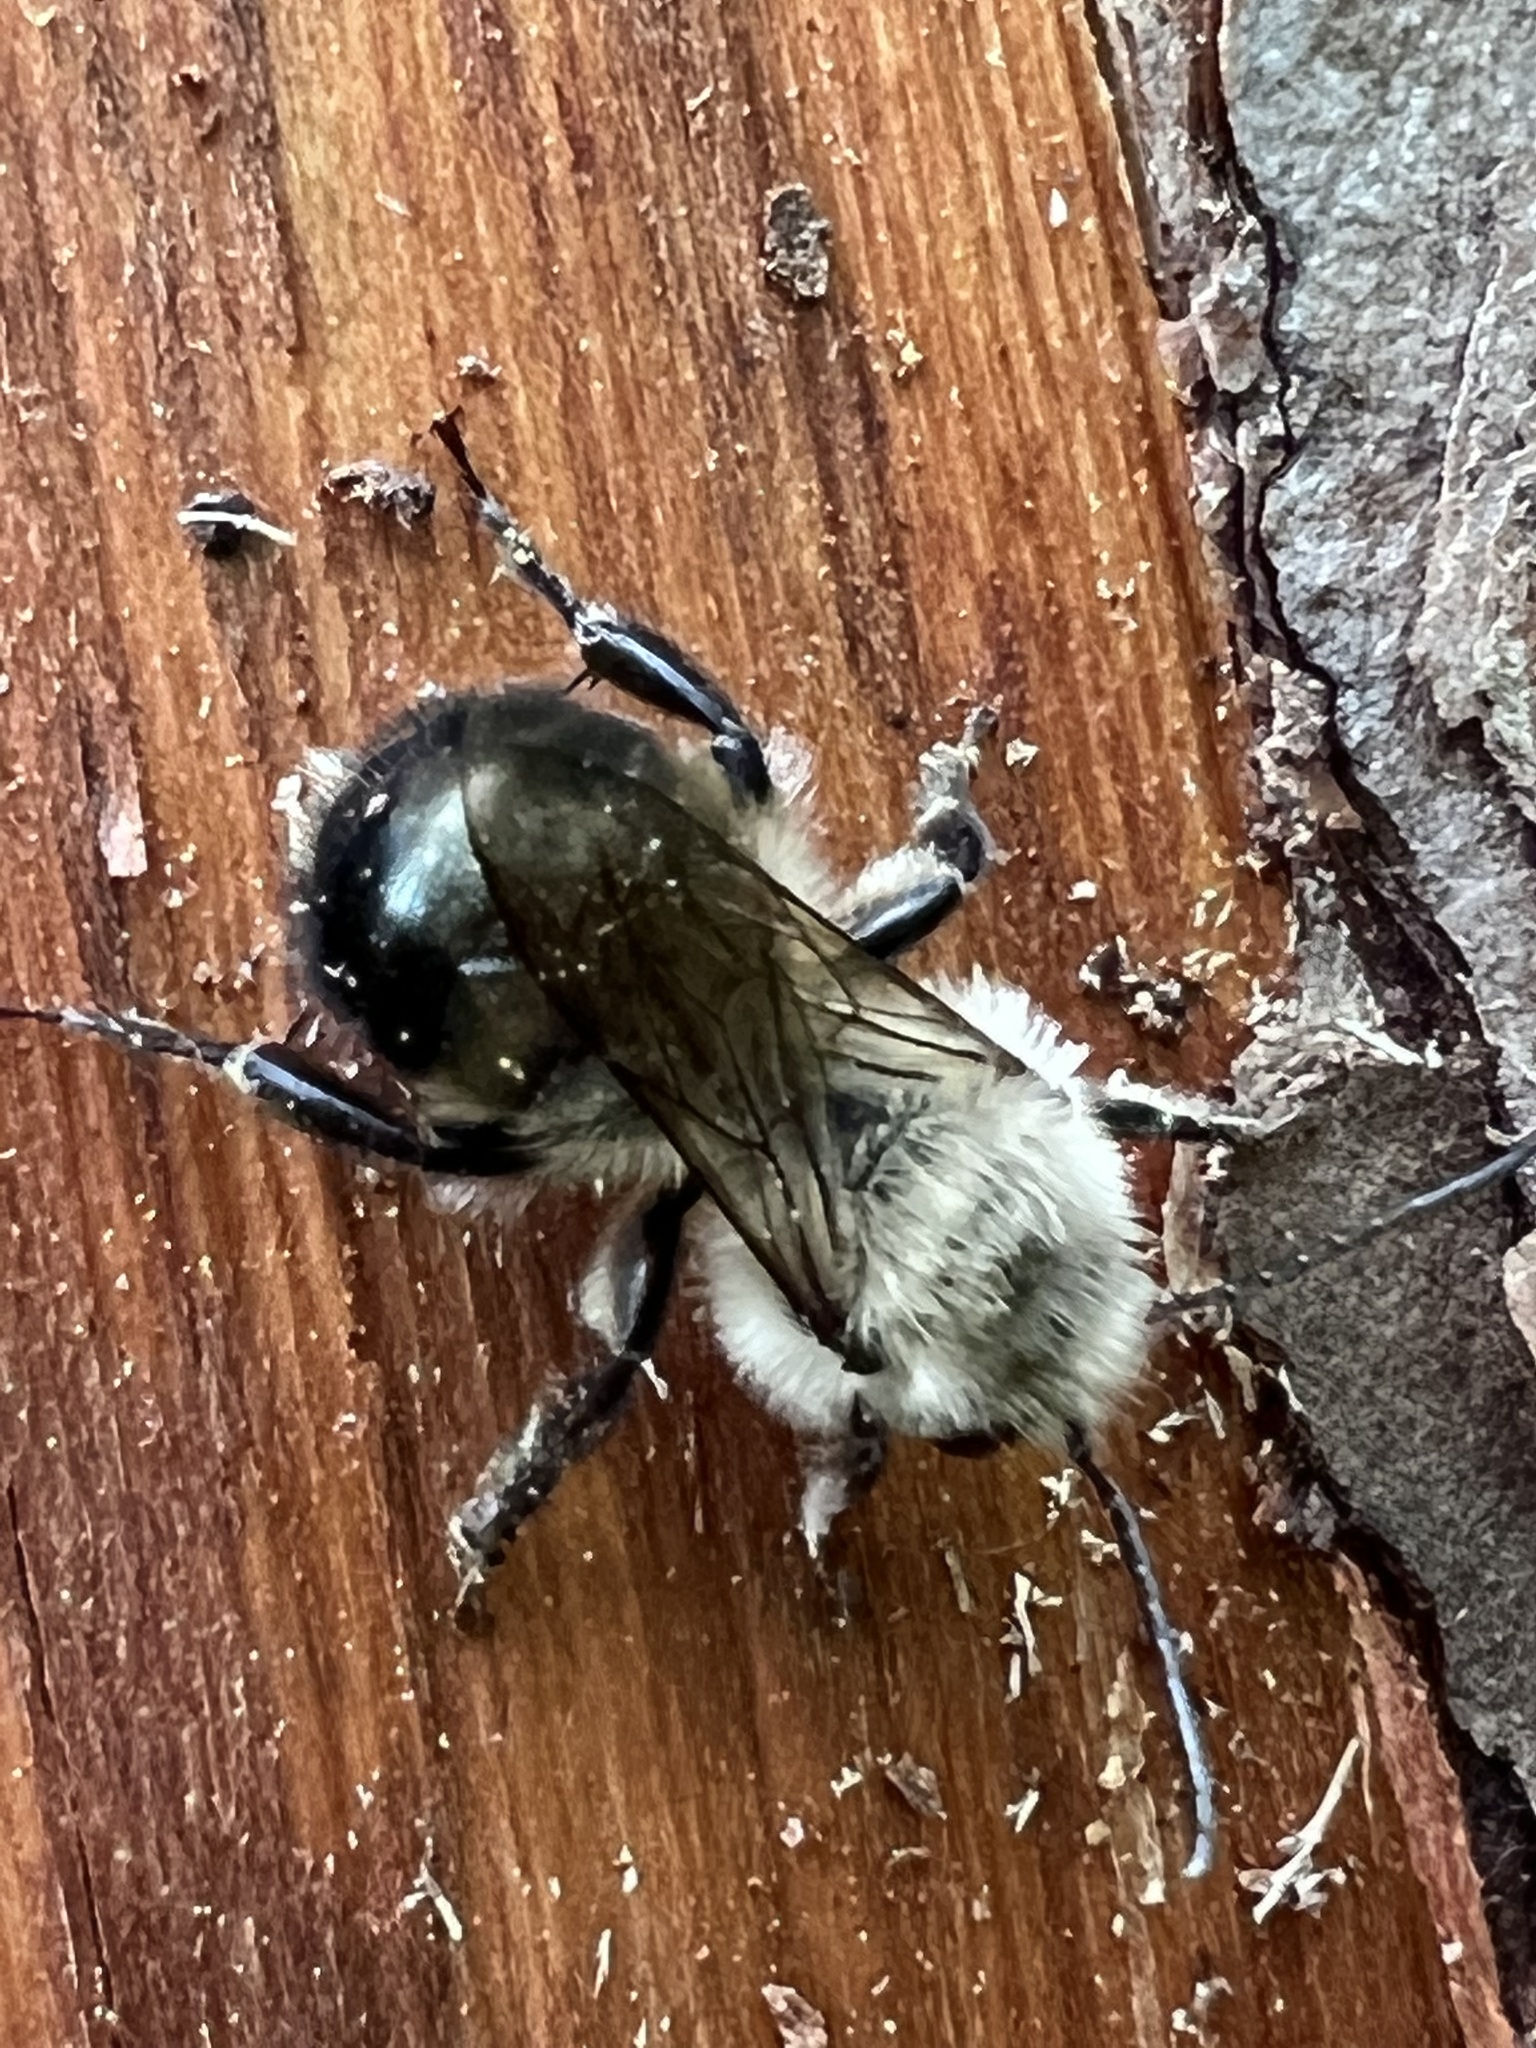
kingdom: Animalia
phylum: Arthropoda
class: Insecta
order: Hymenoptera
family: Megachilidae
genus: Osmia
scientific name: Osmia bucephala
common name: Bufflehead mason bee
